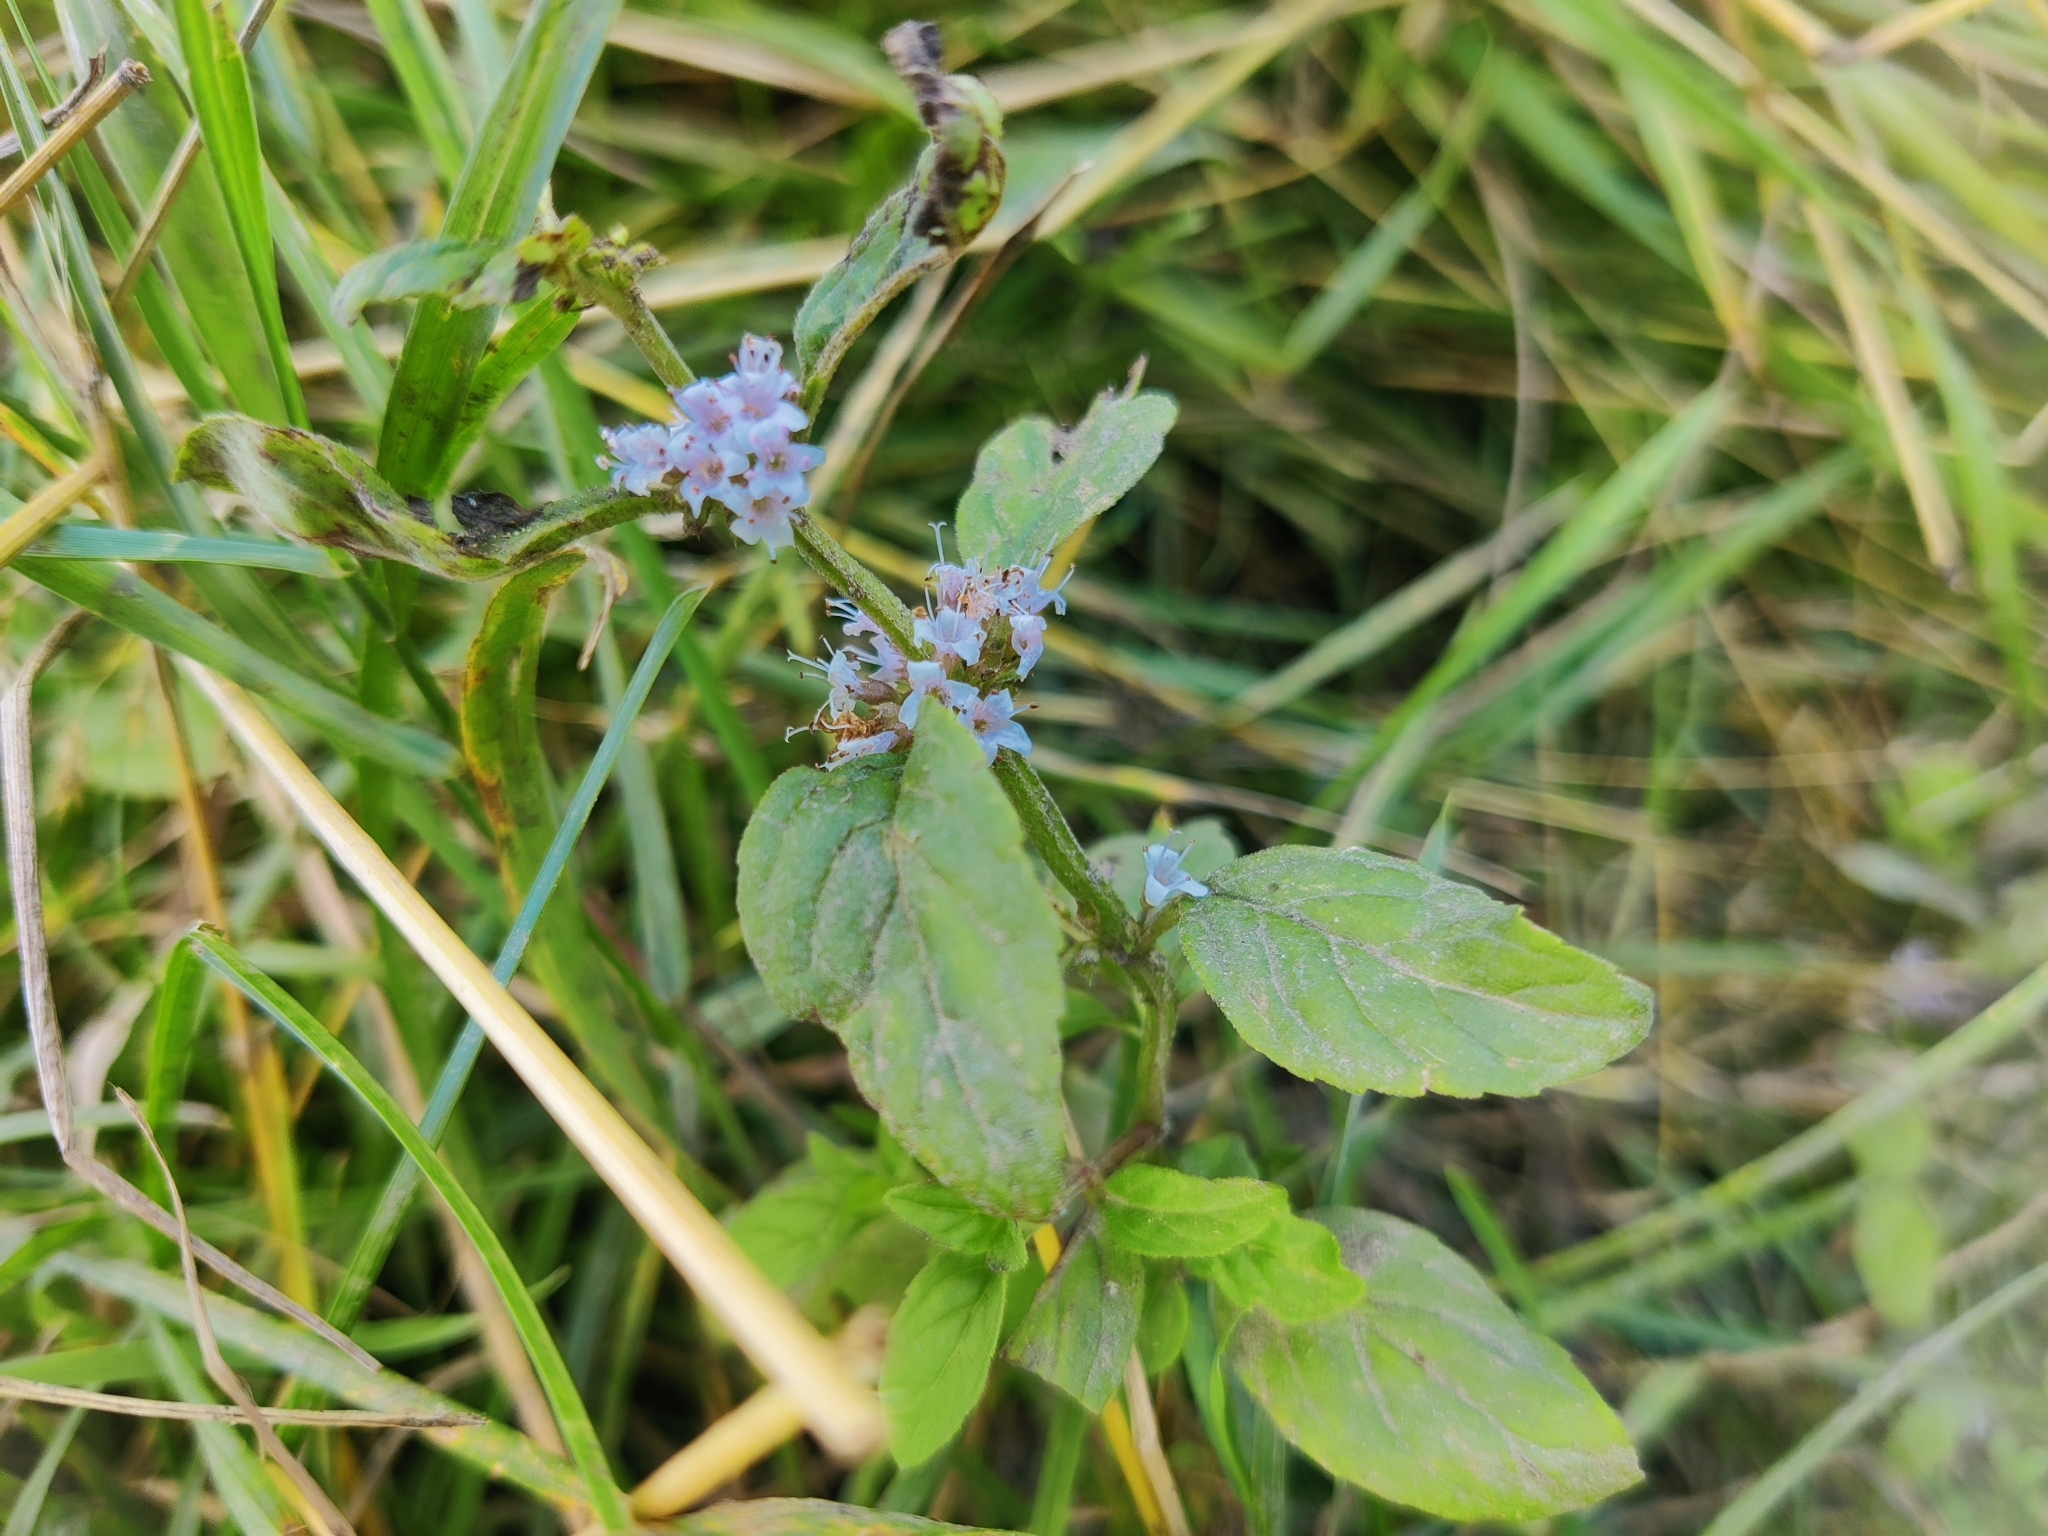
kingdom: Plantae
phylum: Tracheophyta
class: Magnoliopsida
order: Lamiales
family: Lamiaceae
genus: Mentha
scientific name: Mentha arvensis
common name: Corn mint
